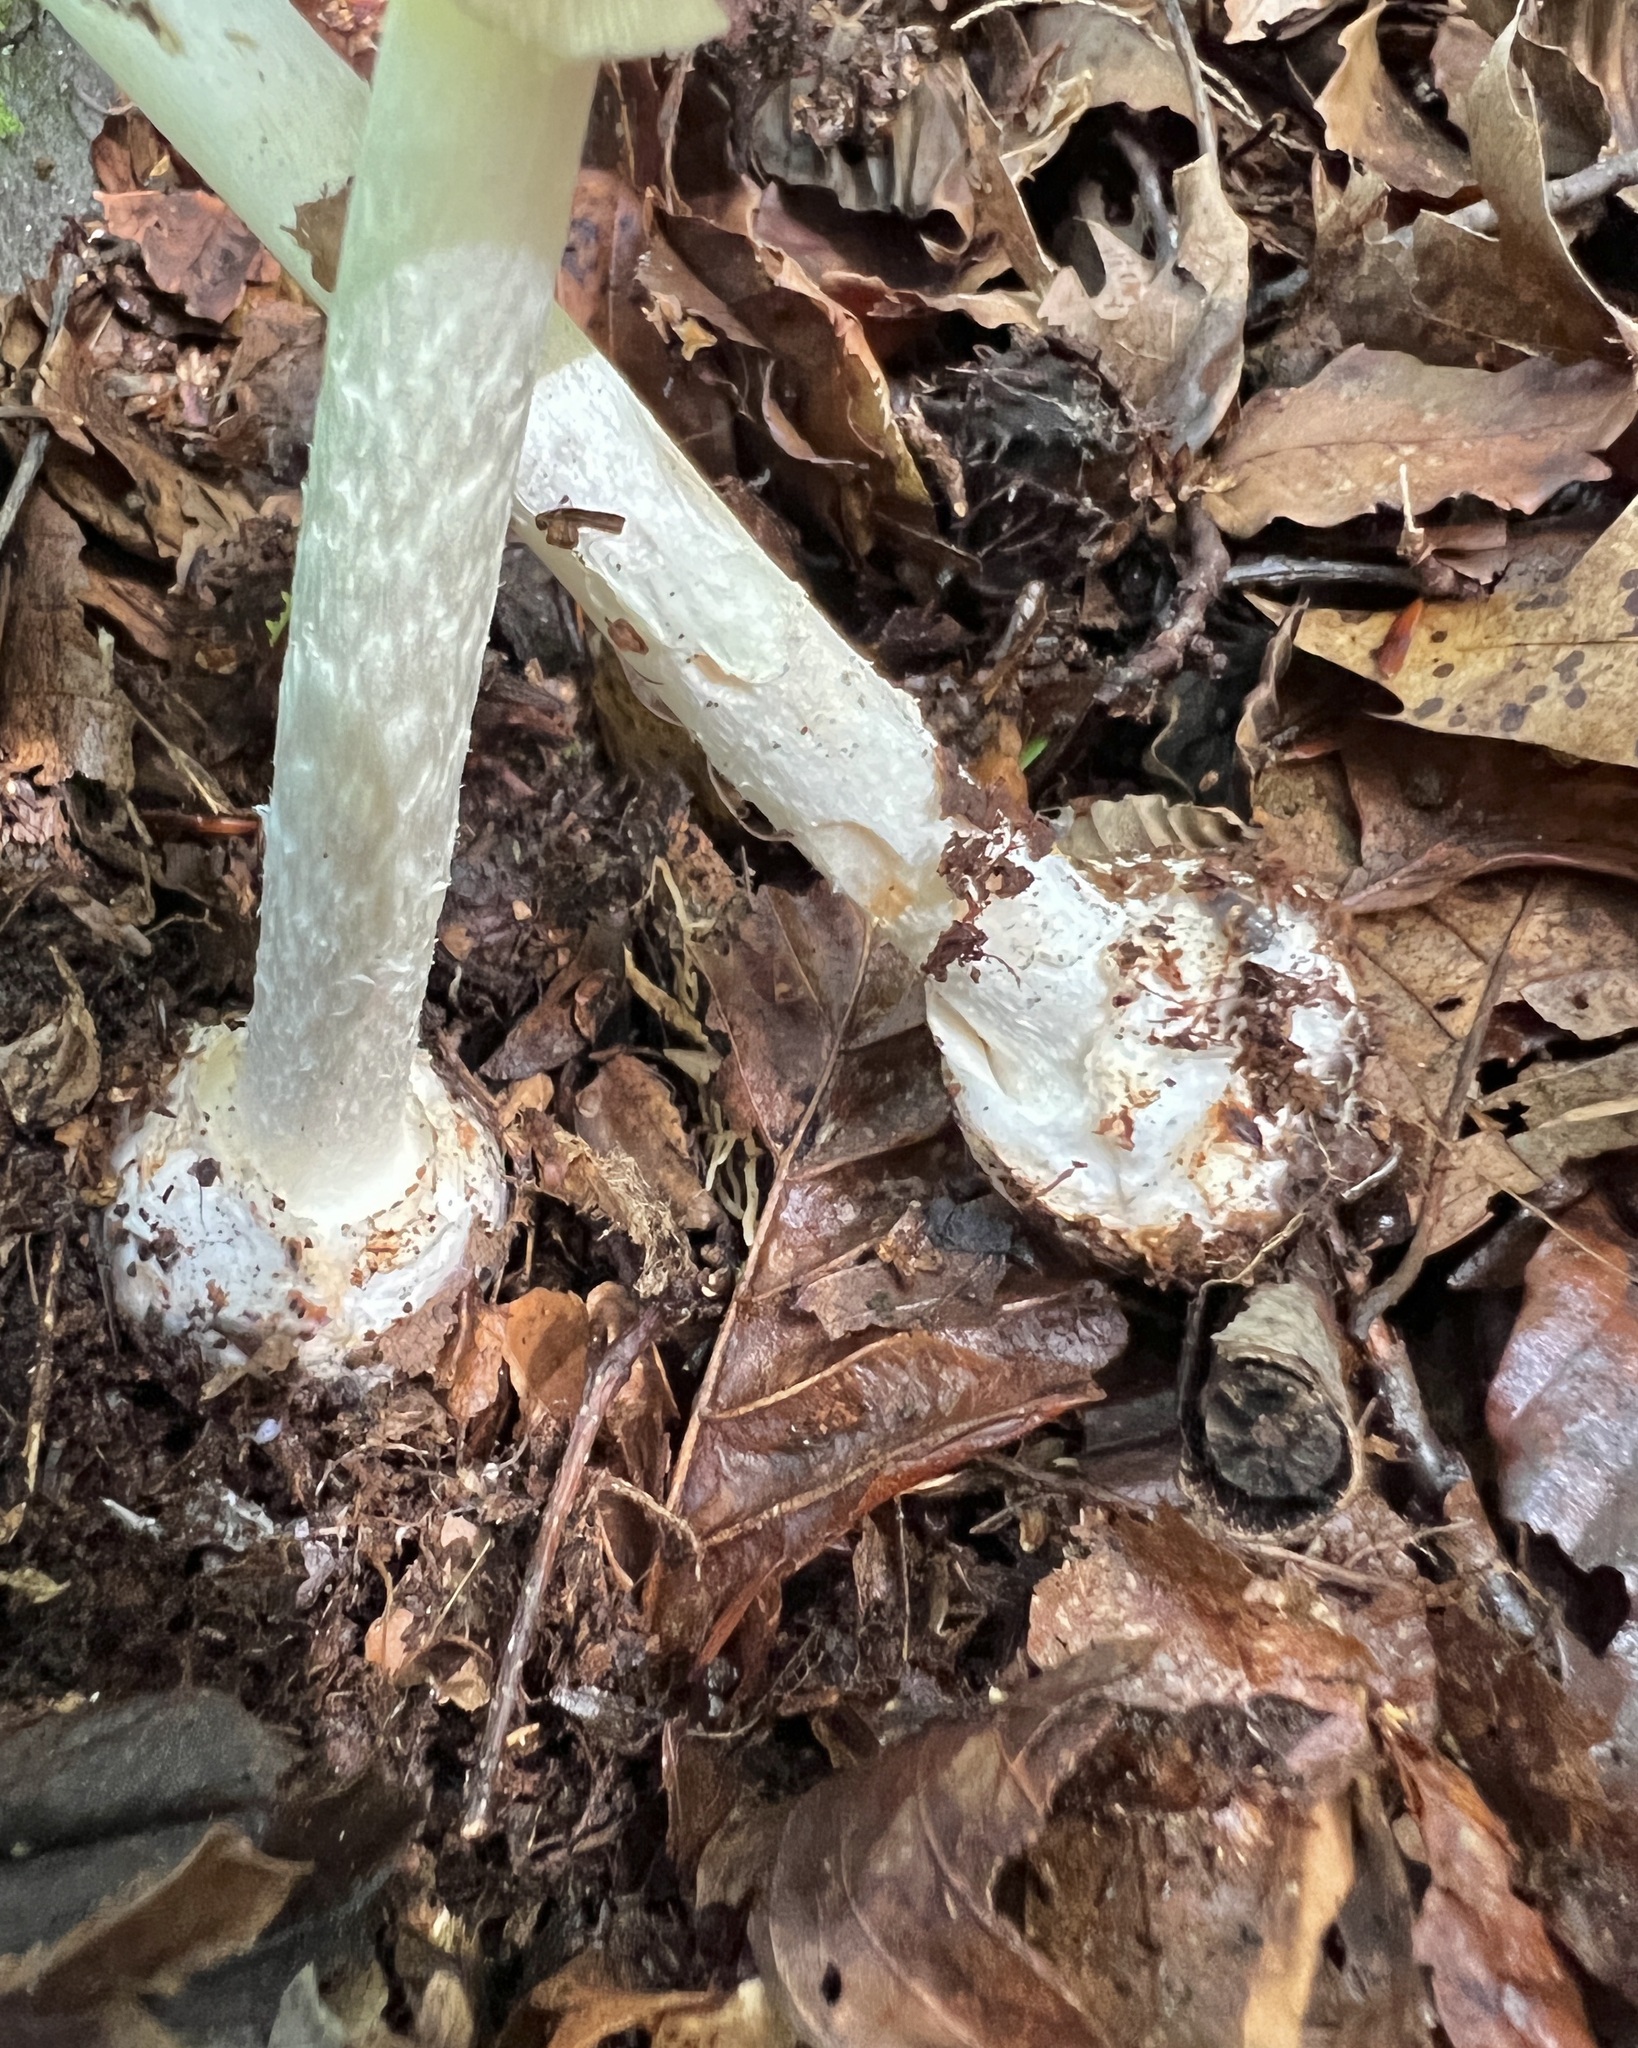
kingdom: Fungi
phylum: Basidiomycota
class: Agaricomycetes
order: Agaricales
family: Amanitaceae
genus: Amanita
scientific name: Amanita lavendula
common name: Coker's lavender staining amanita
